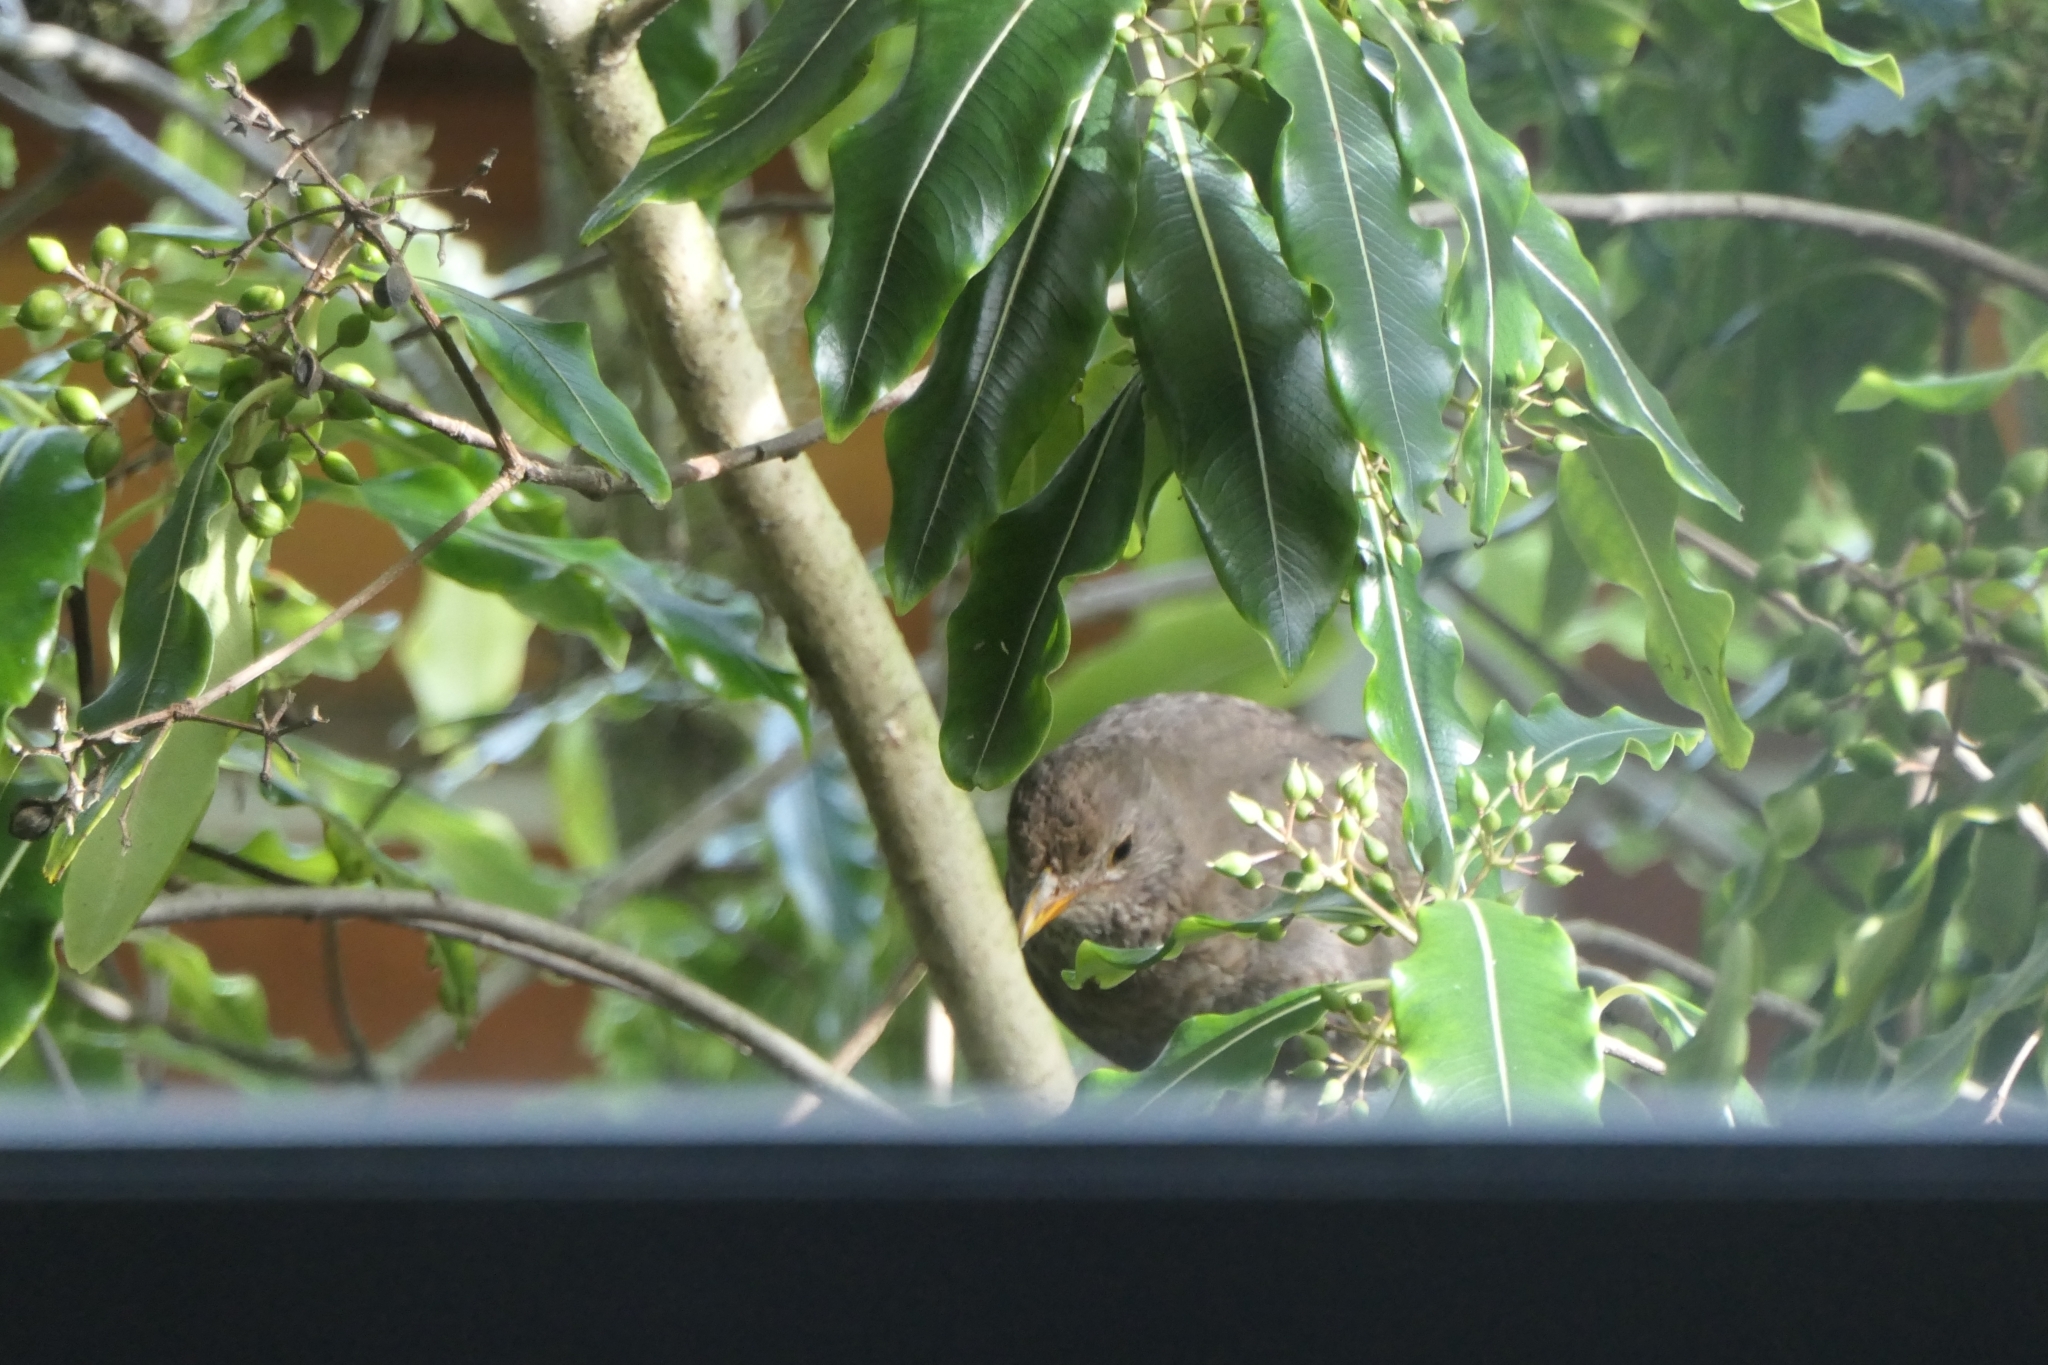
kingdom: Animalia
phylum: Chordata
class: Aves
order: Passeriformes
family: Turdidae
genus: Turdus
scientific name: Turdus merula
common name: Common blackbird
